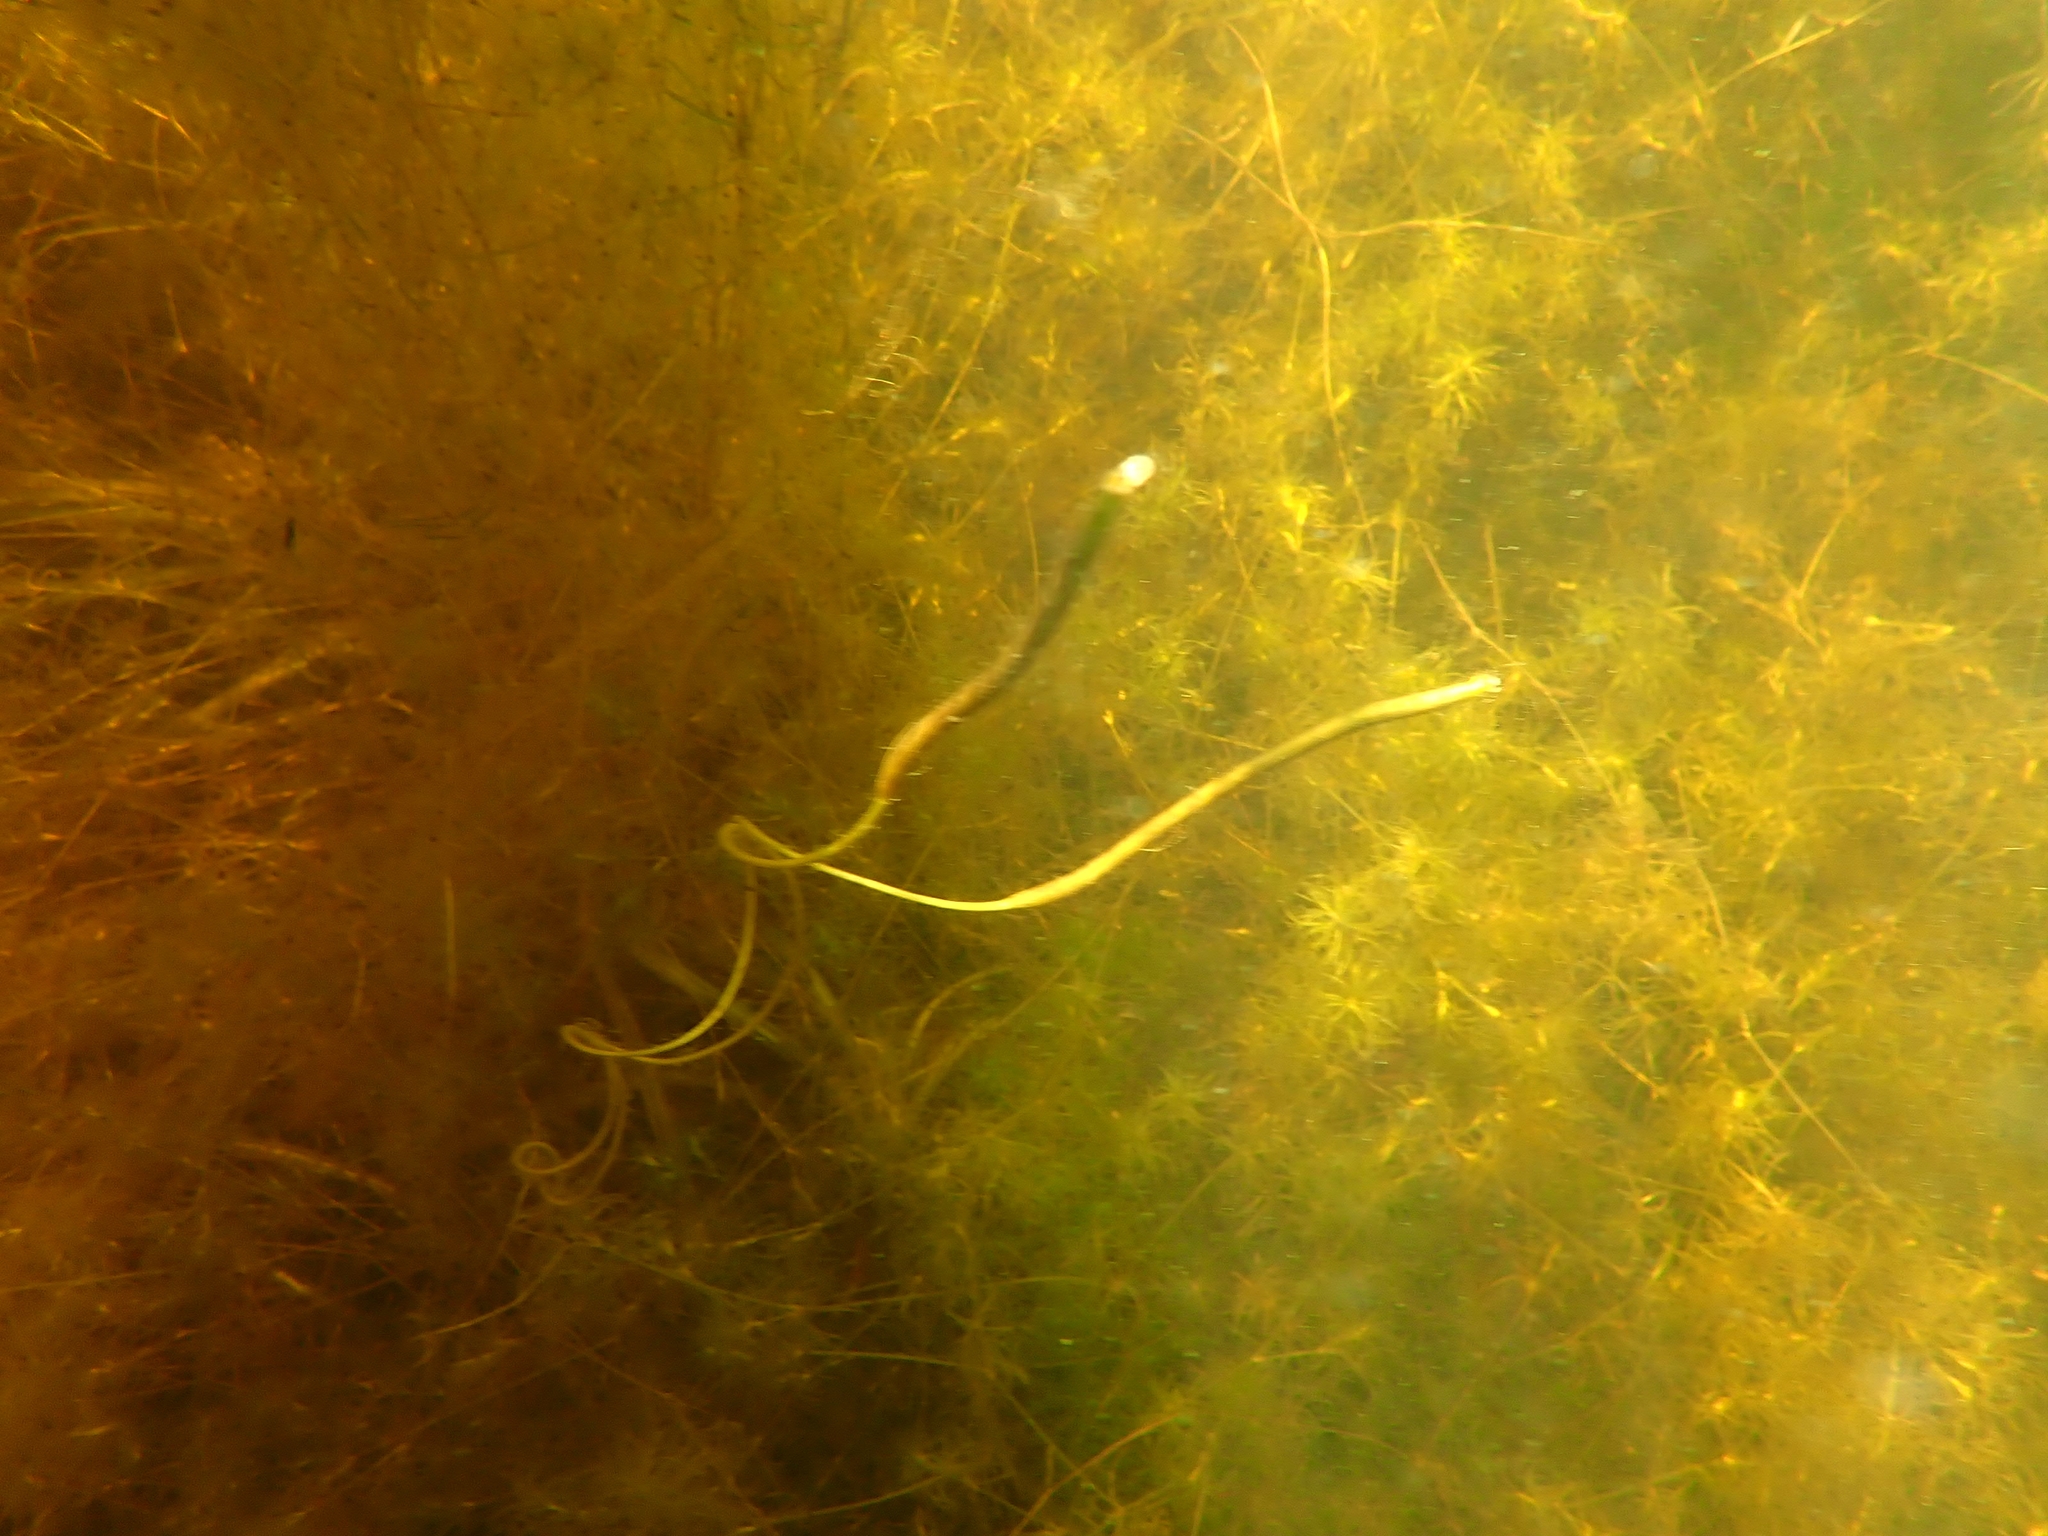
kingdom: Plantae
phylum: Tracheophyta
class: Liliopsida
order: Alismatales
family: Hydrocharitaceae
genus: Vallisneria
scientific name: Vallisneria americana
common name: American eelgrass
